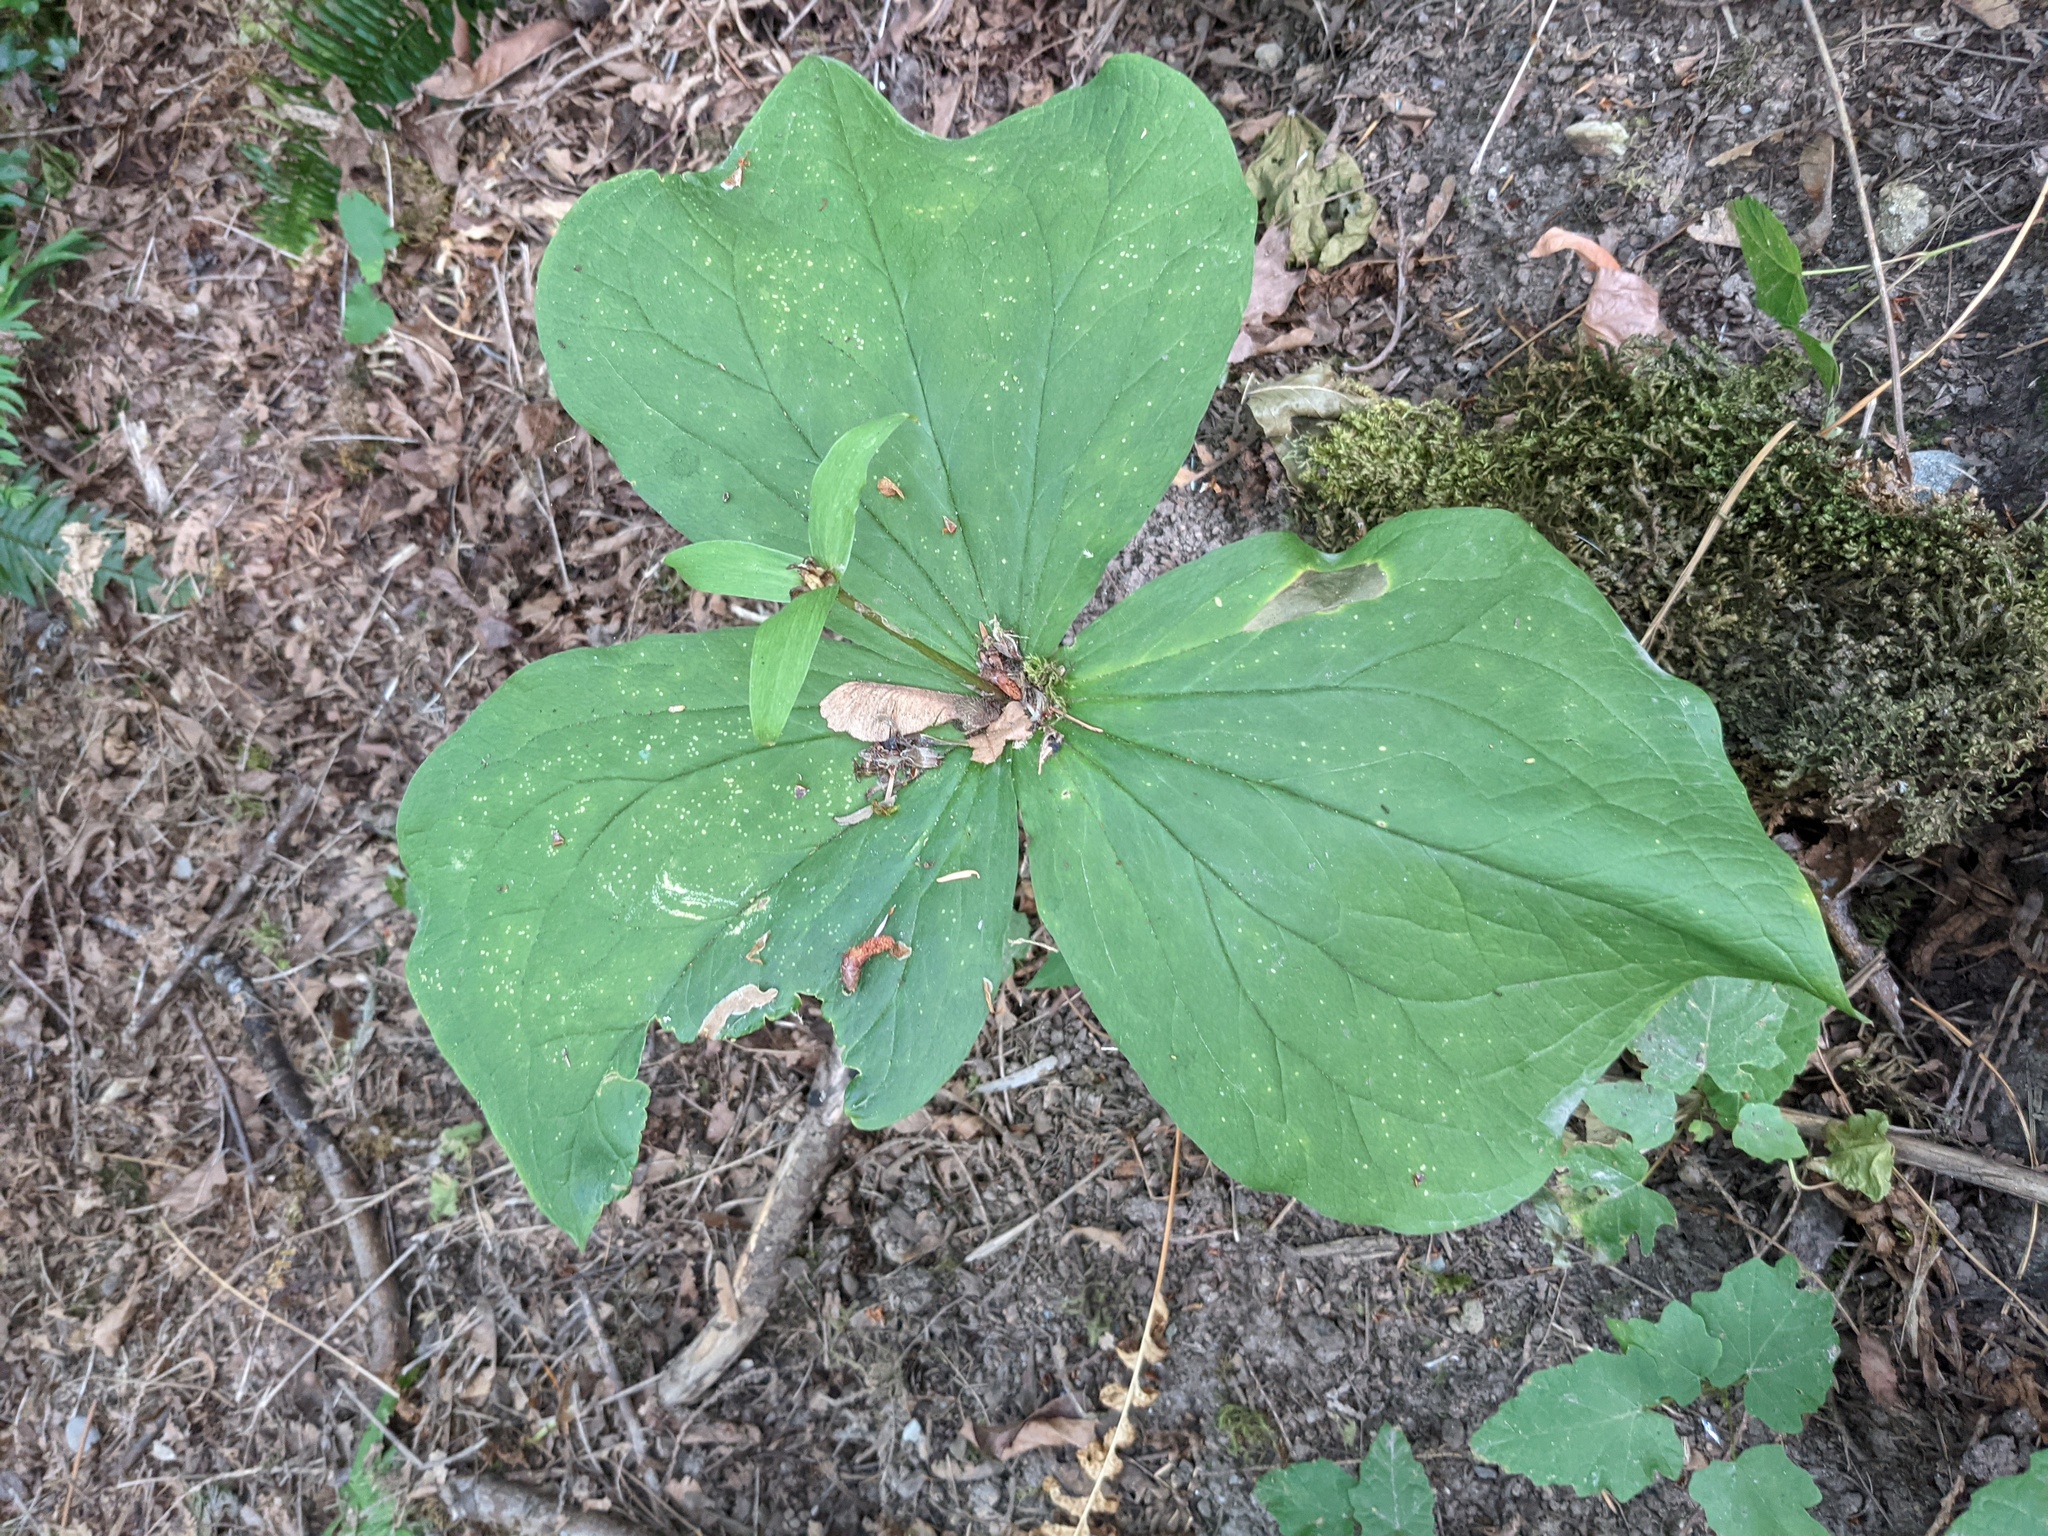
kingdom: Plantae
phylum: Tracheophyta
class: Liliopsida
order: Liliales
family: Melanthiaceae
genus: Trillium
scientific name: Trillium ovatum
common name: Pacific trillium
